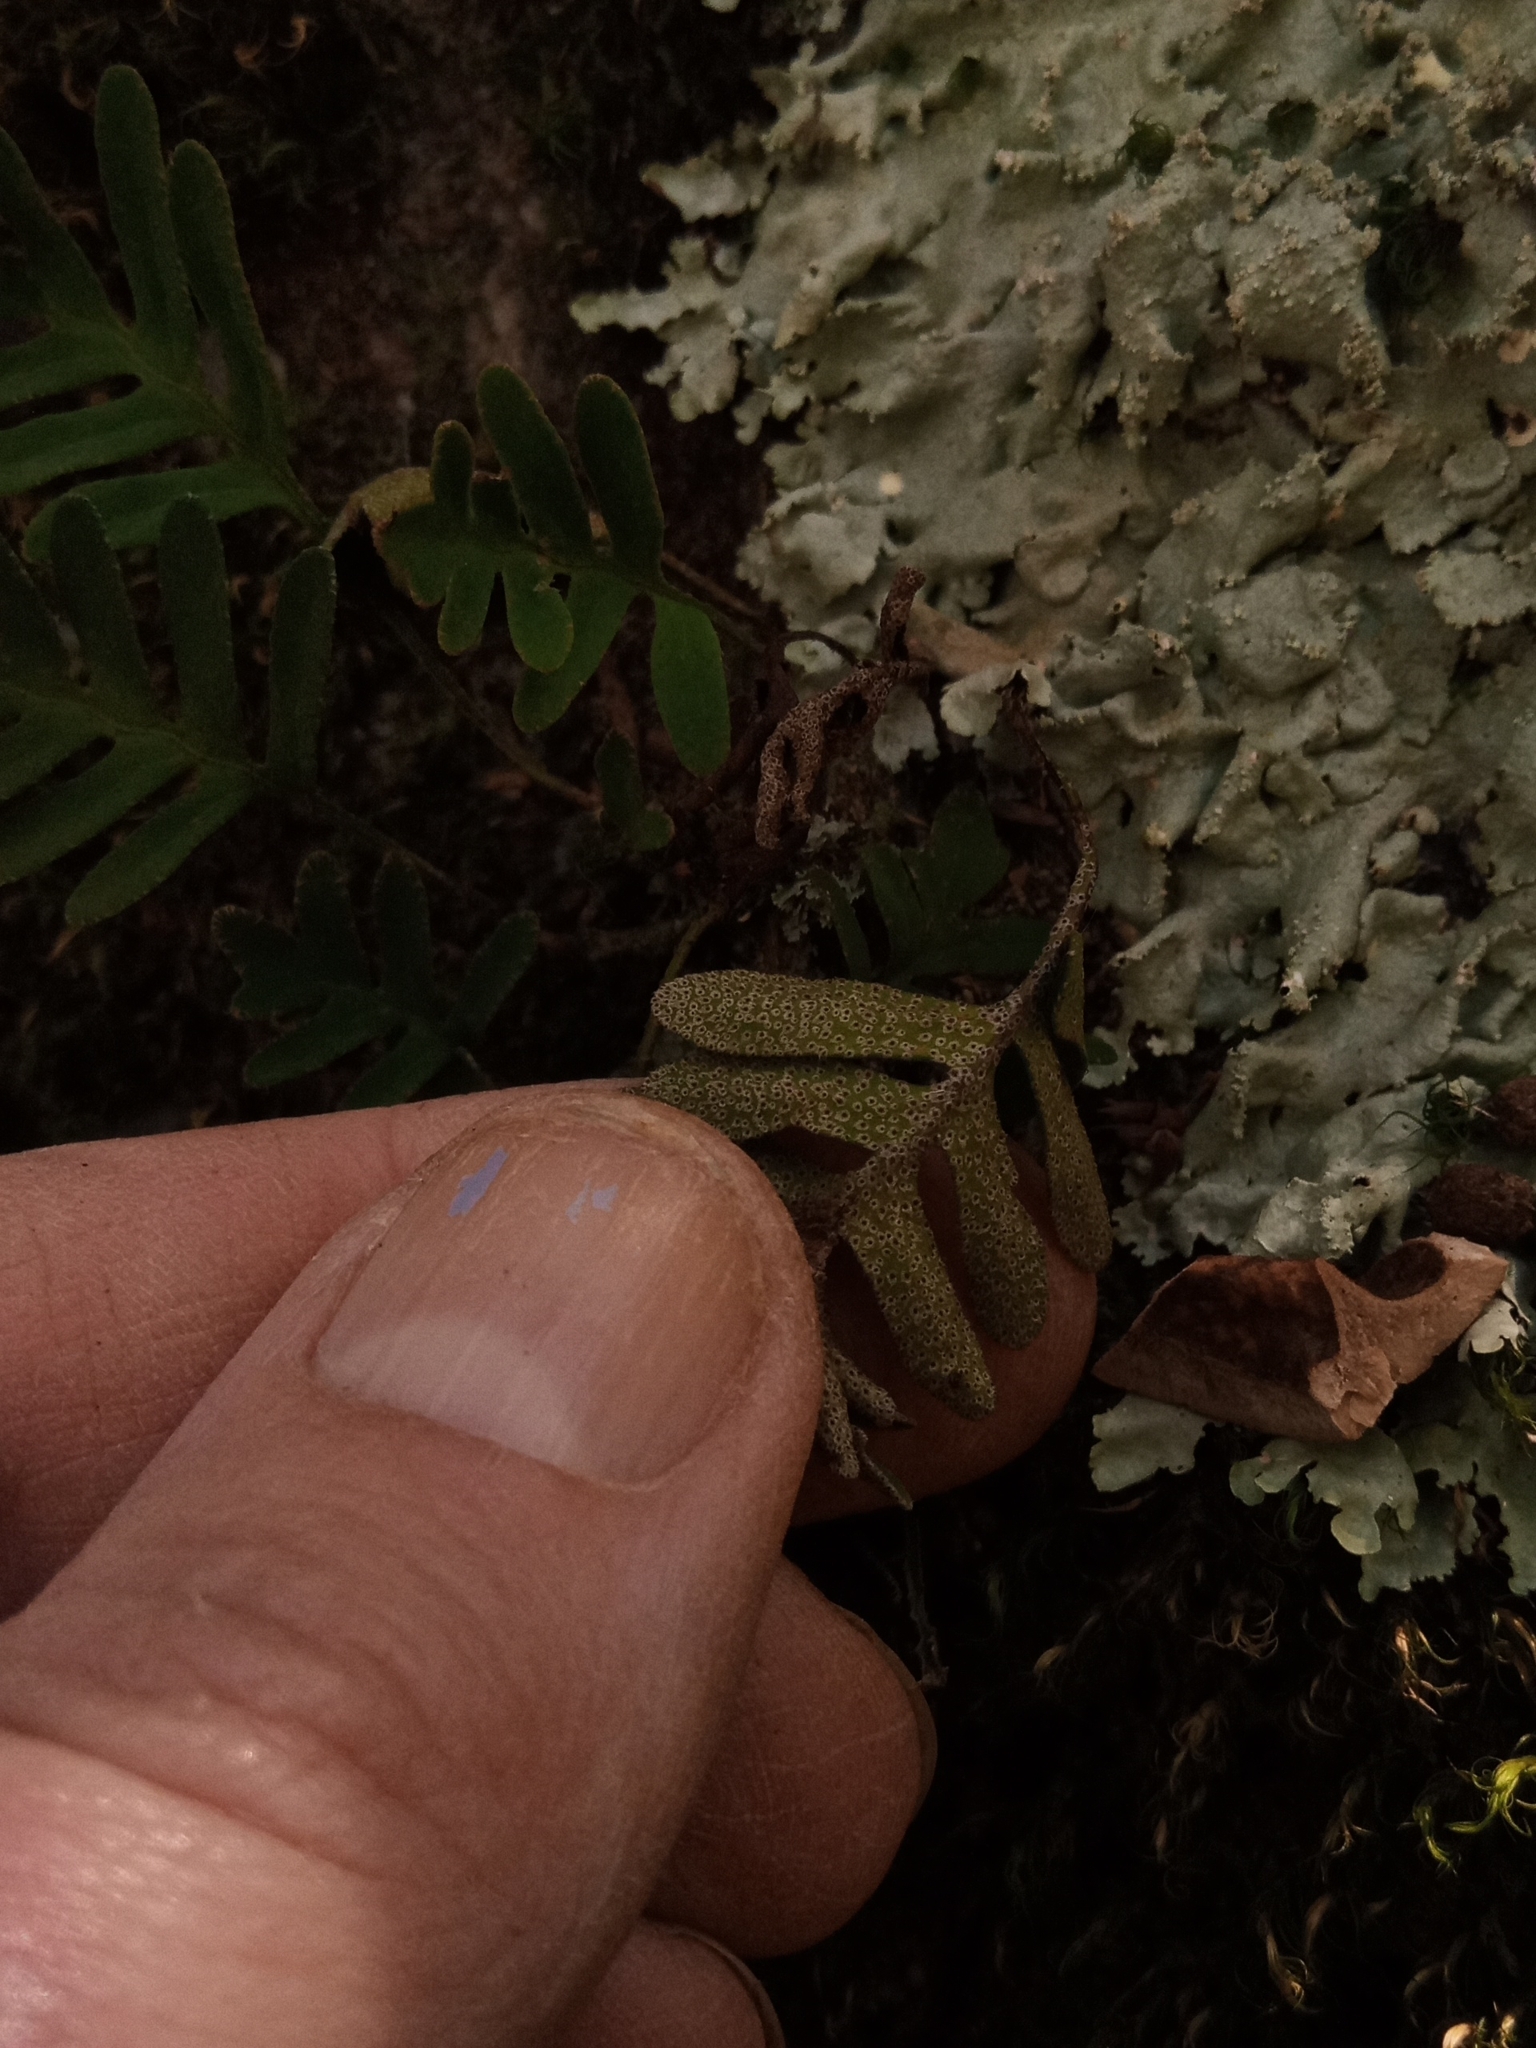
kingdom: Plantae
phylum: Tracheophyta
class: Polypodiopsida
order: Polypodiales
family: Polypodiaceae
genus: Pleopeltis
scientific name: Pleopeltis michauxiana
